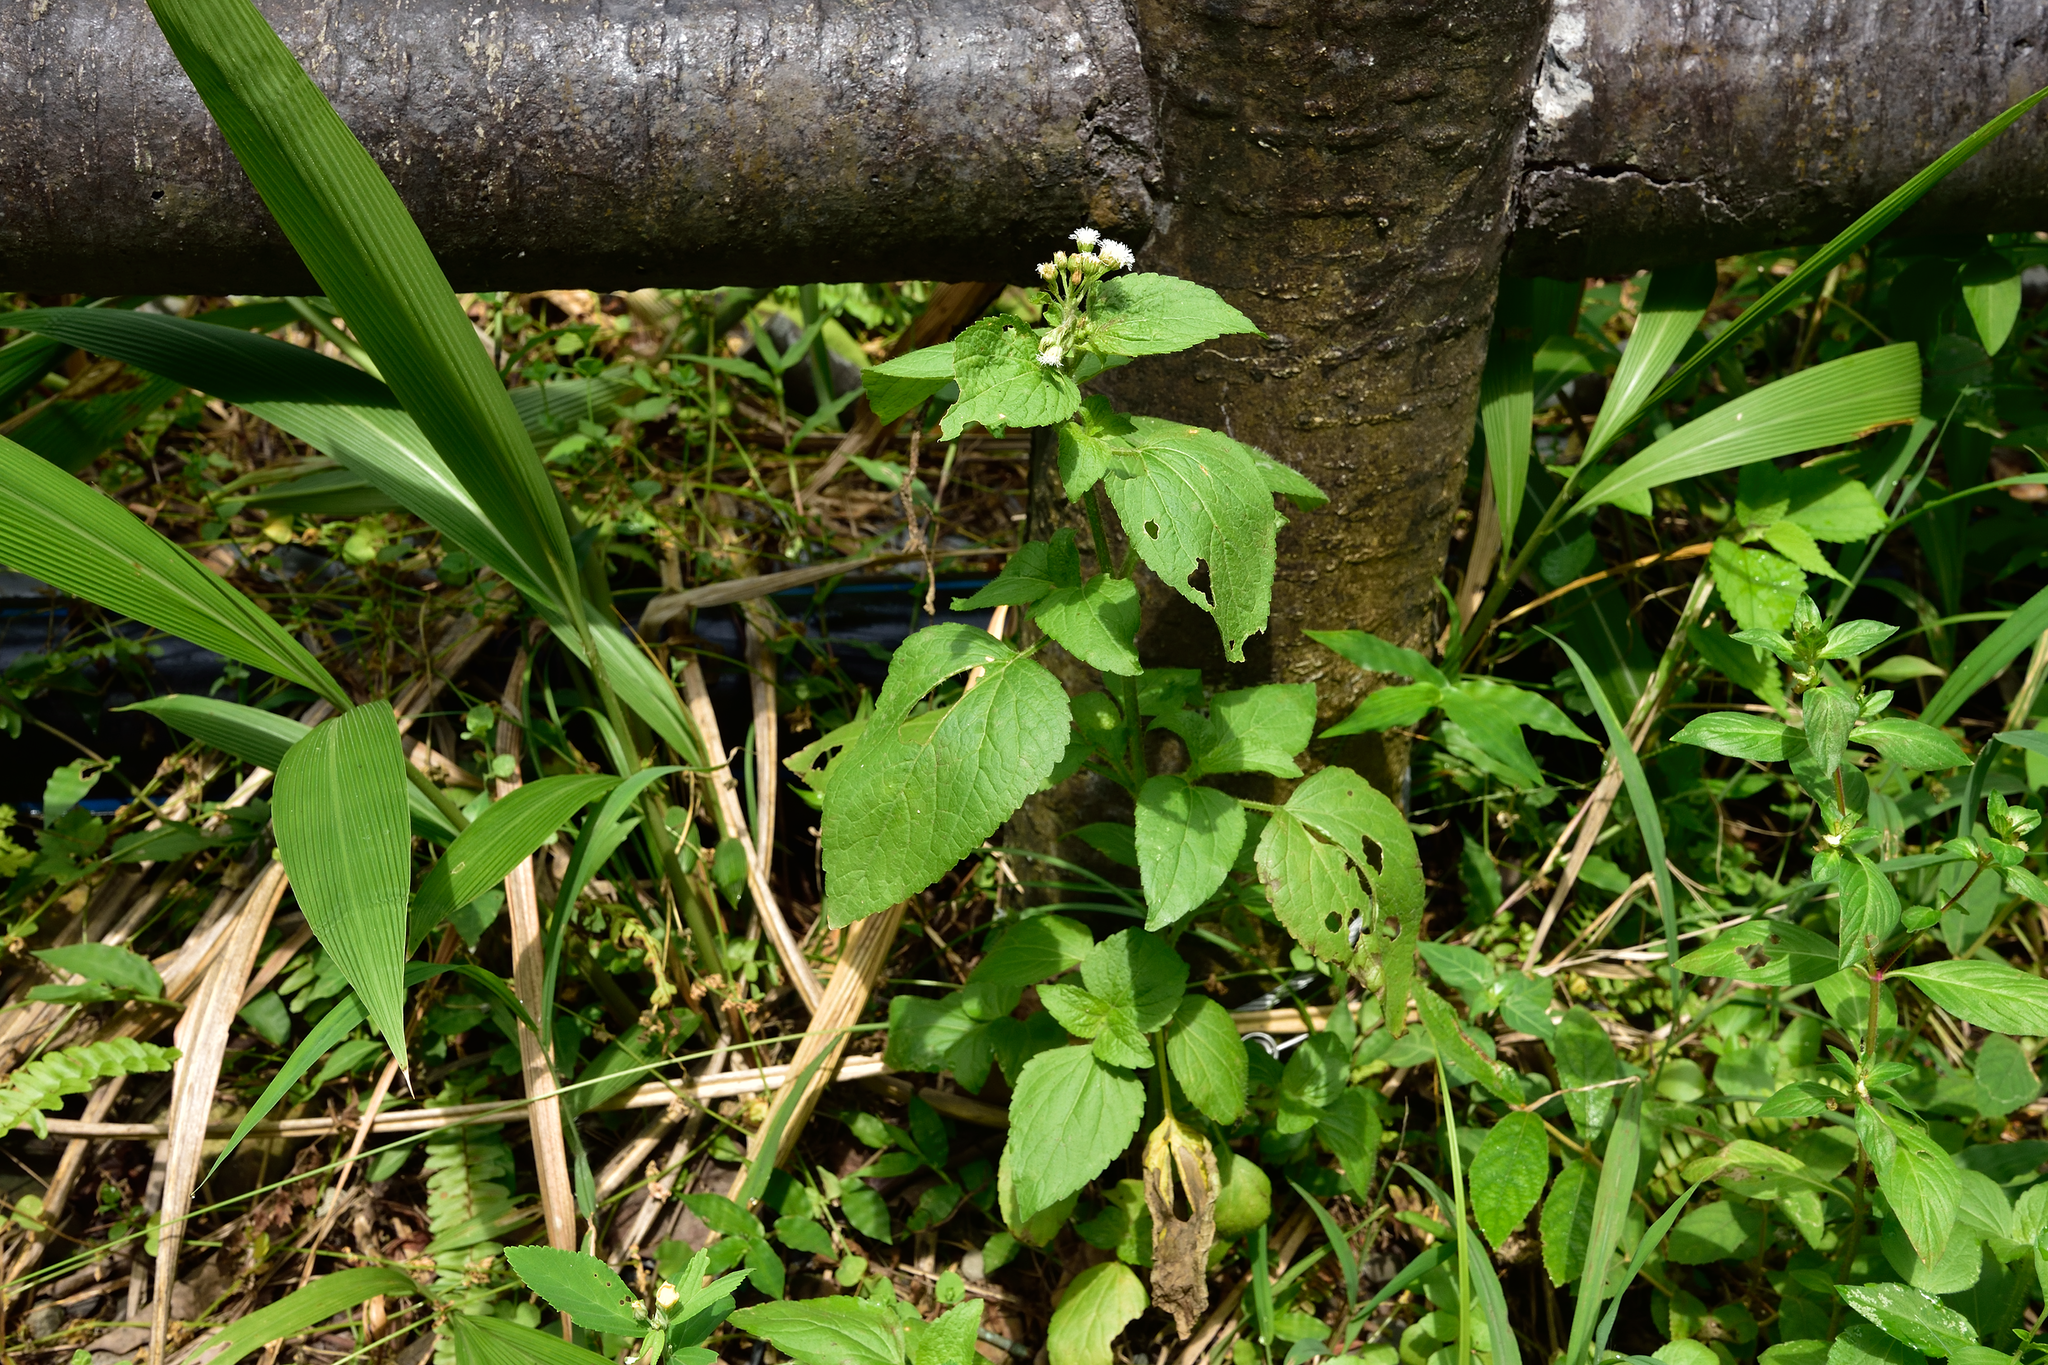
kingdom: Plantae
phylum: Tracheophyta
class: Magnoliopsida
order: Asterales
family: Asteraceae
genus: Ageratum
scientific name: Ageratum conyzoides
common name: Tropical whiteweed
